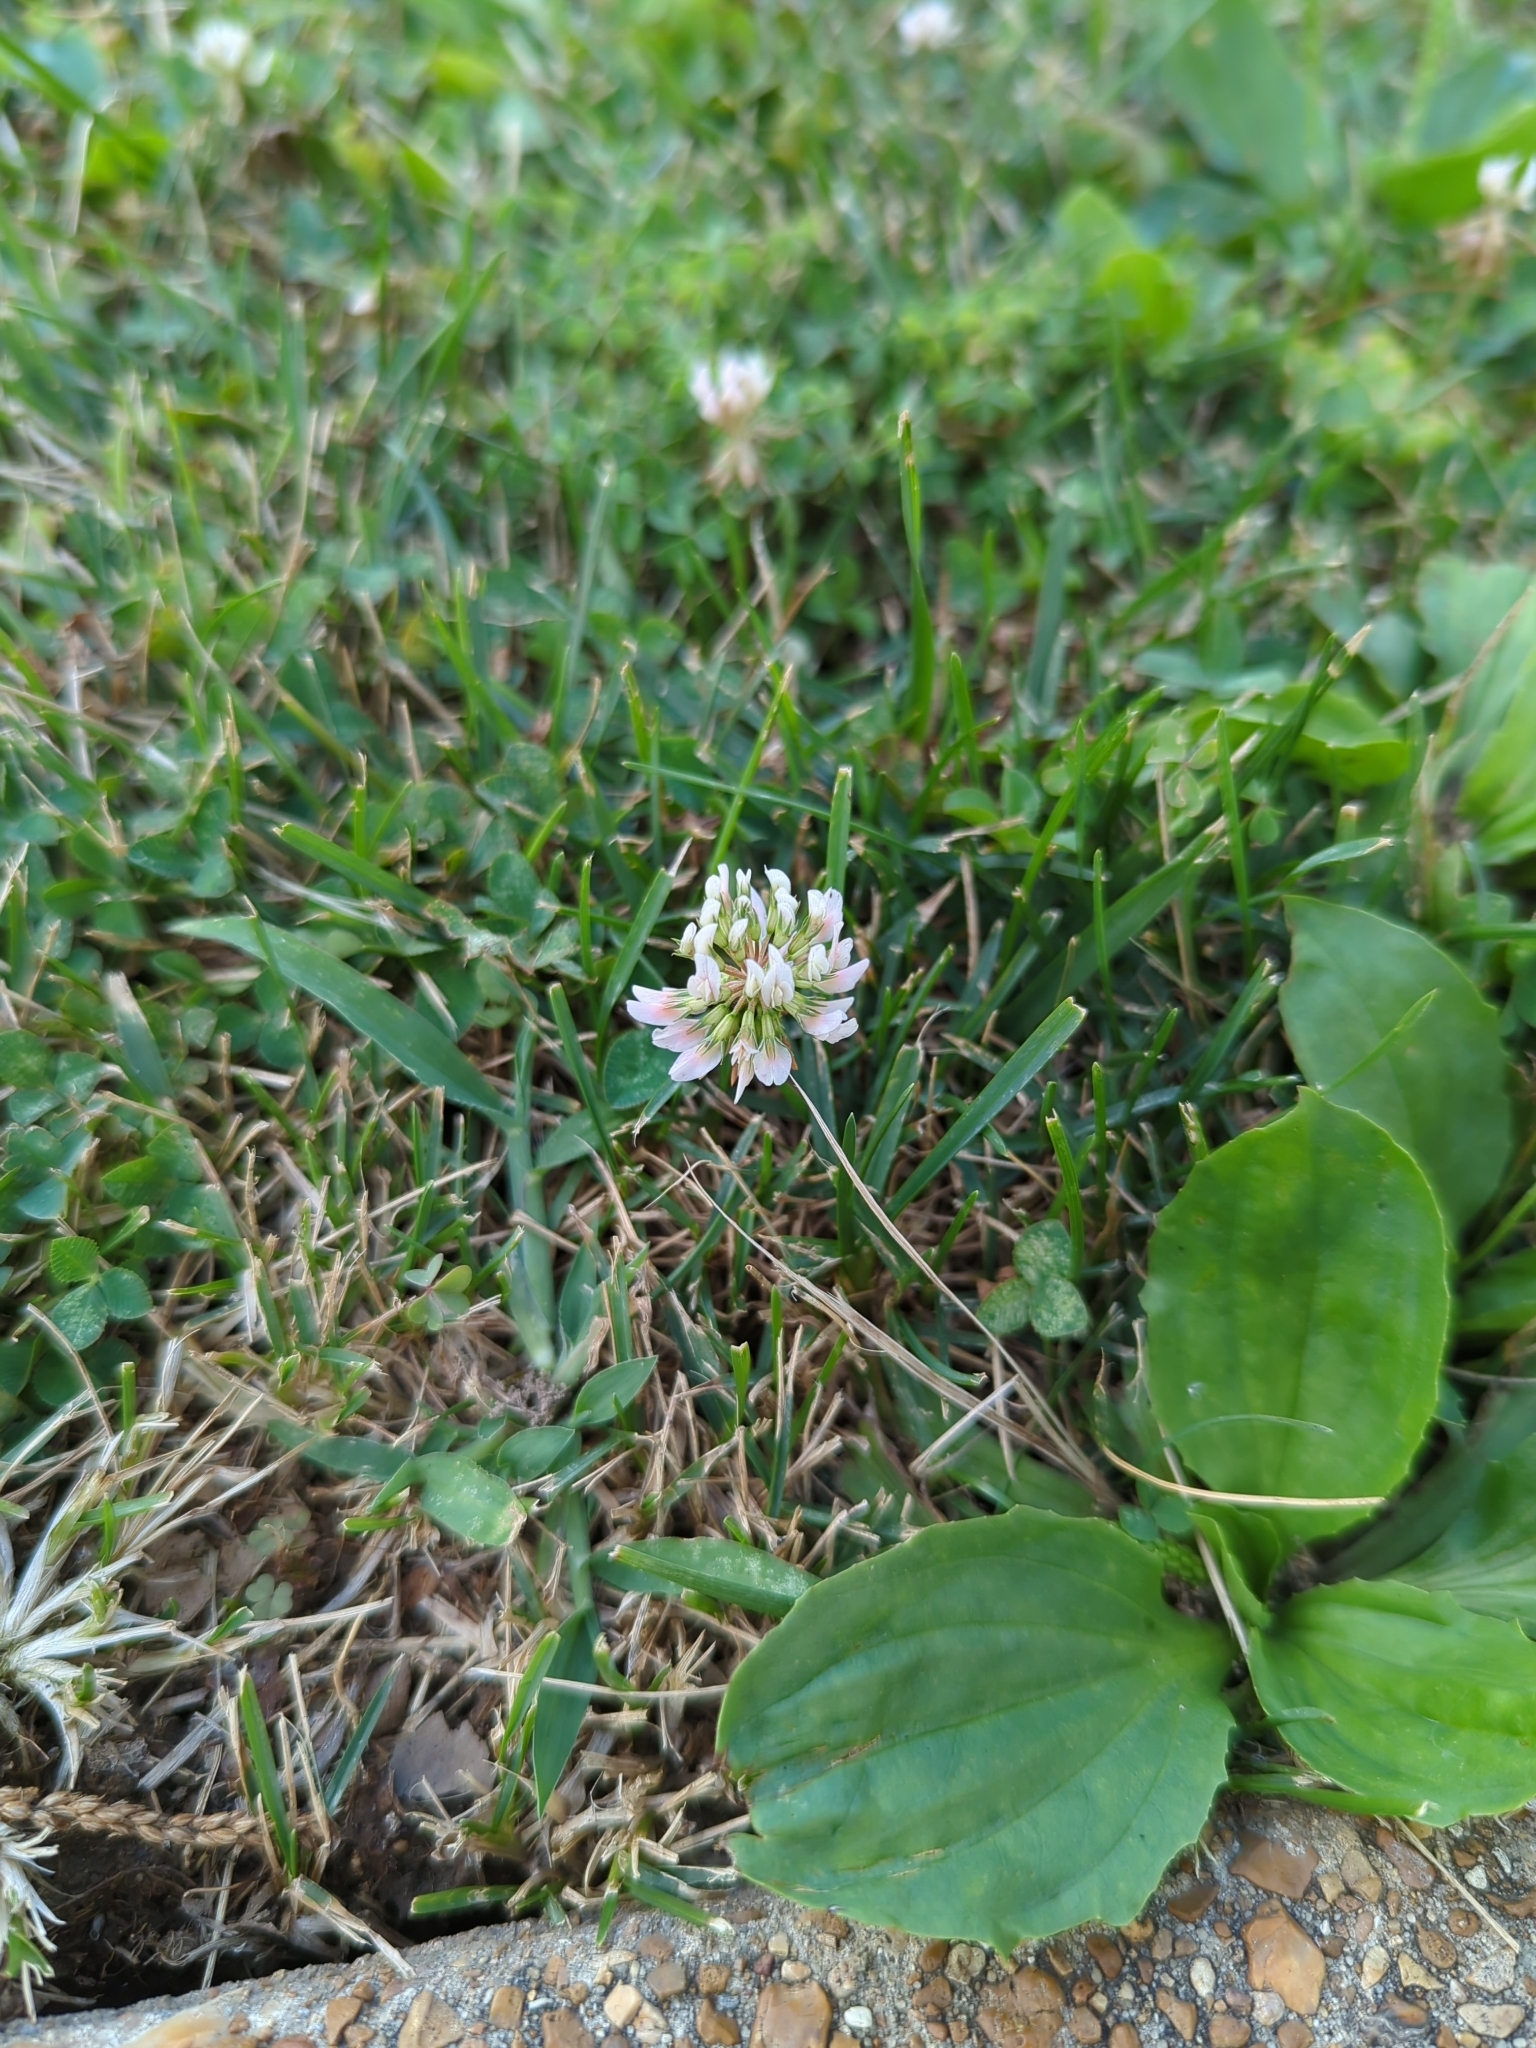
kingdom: Plantae
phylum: Tracheophyta
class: Magnoliopsida
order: Fabales
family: Fabaceae
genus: Trifolium
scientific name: Trifolium repens
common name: White clover
